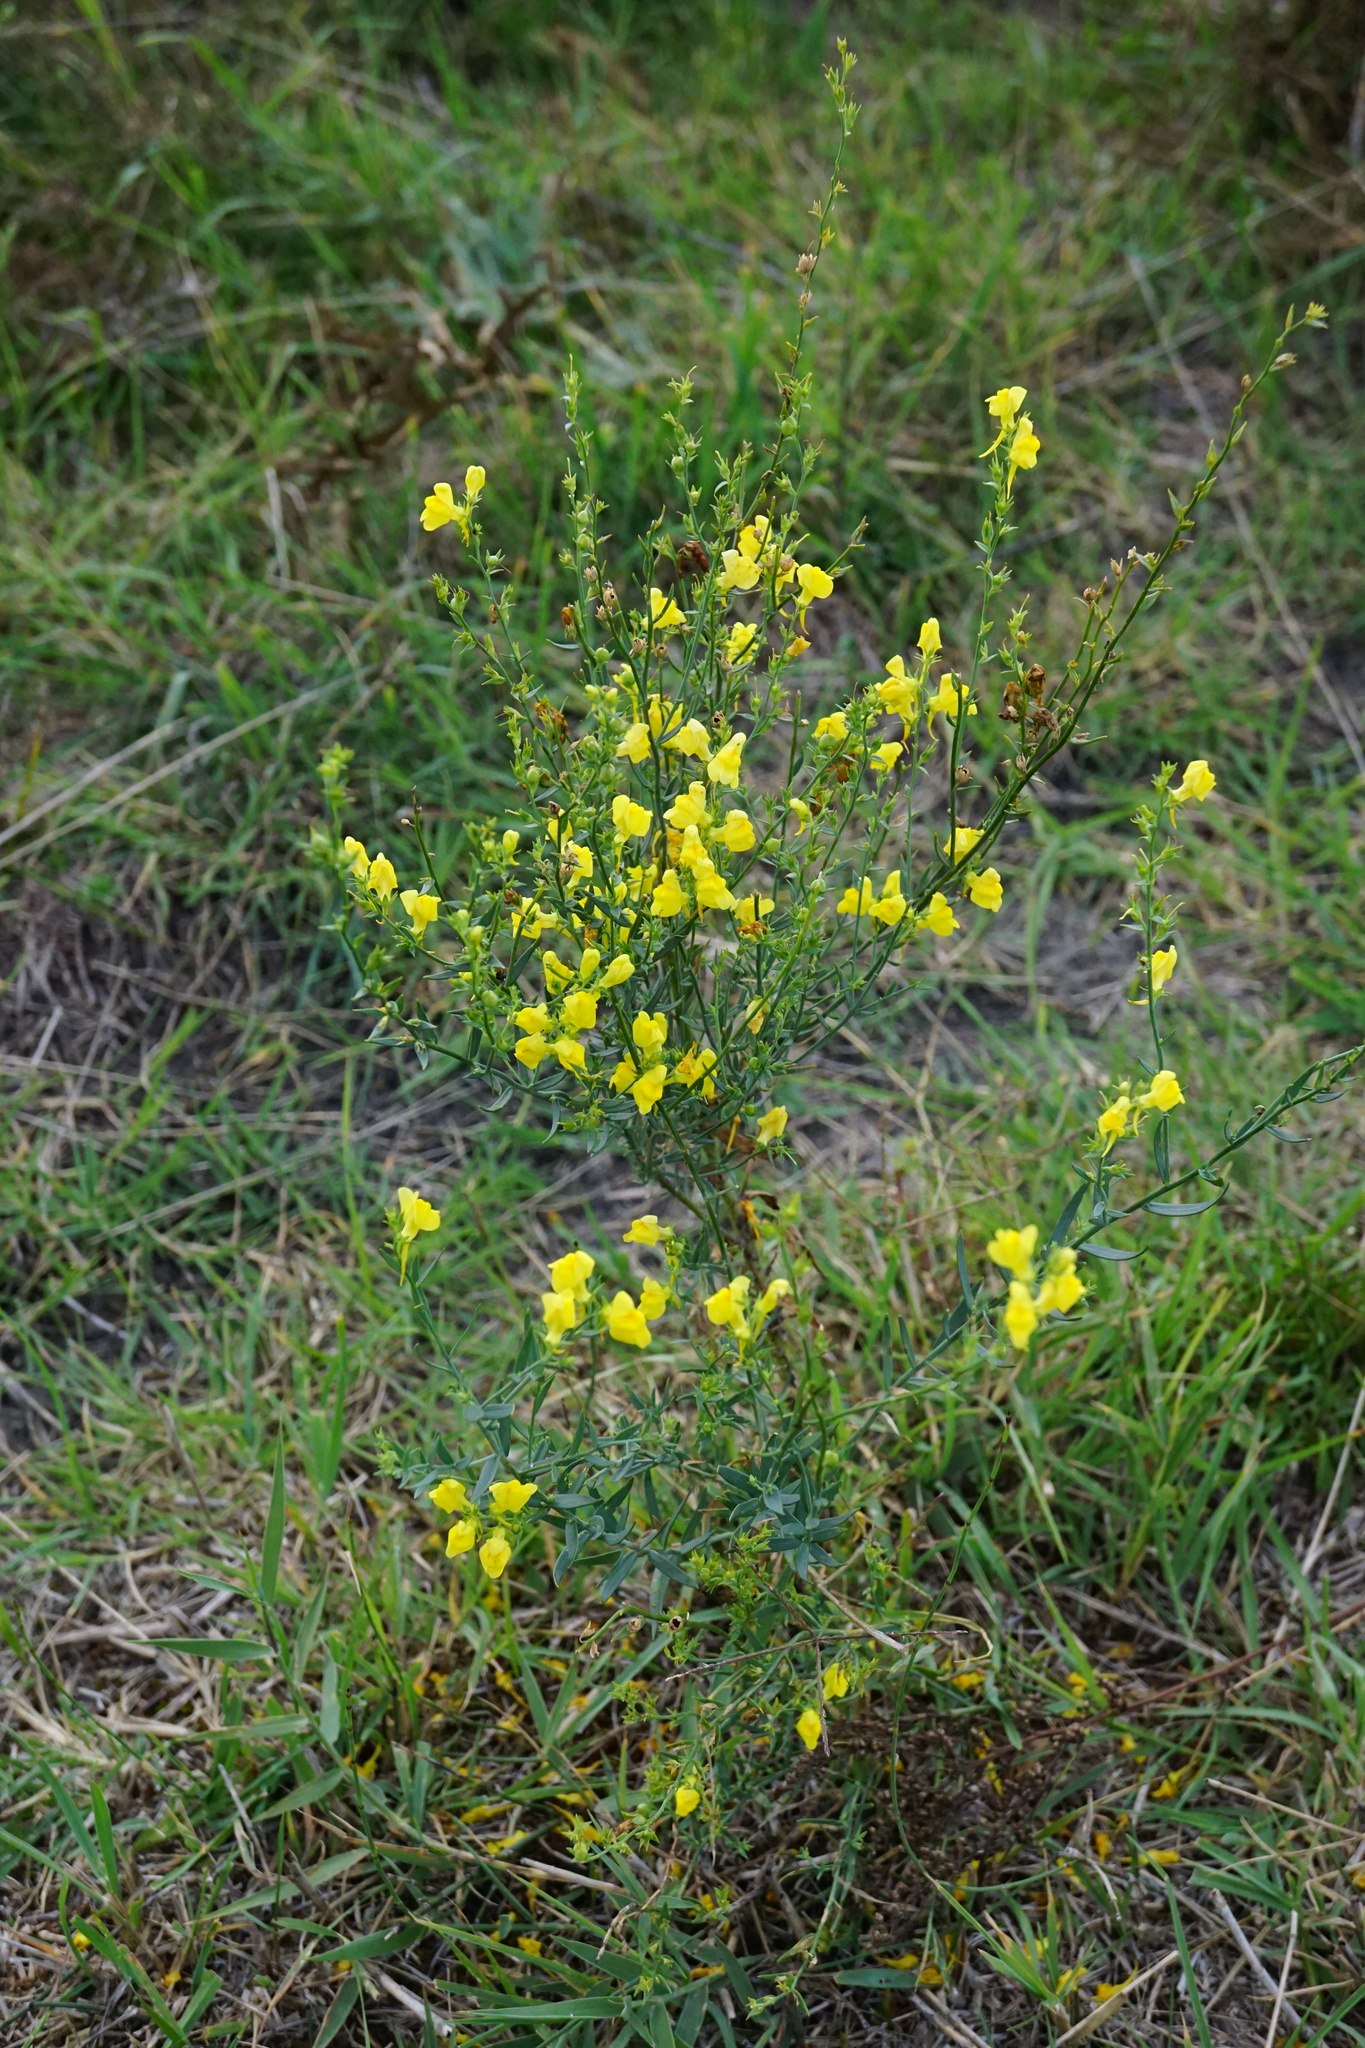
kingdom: Plantae
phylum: Tracheophyta
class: Magnoliopsida
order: Lamiales
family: Plantaginaceae
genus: Linaria
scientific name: Linaria genistifolia
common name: Broomleaf toadflax
